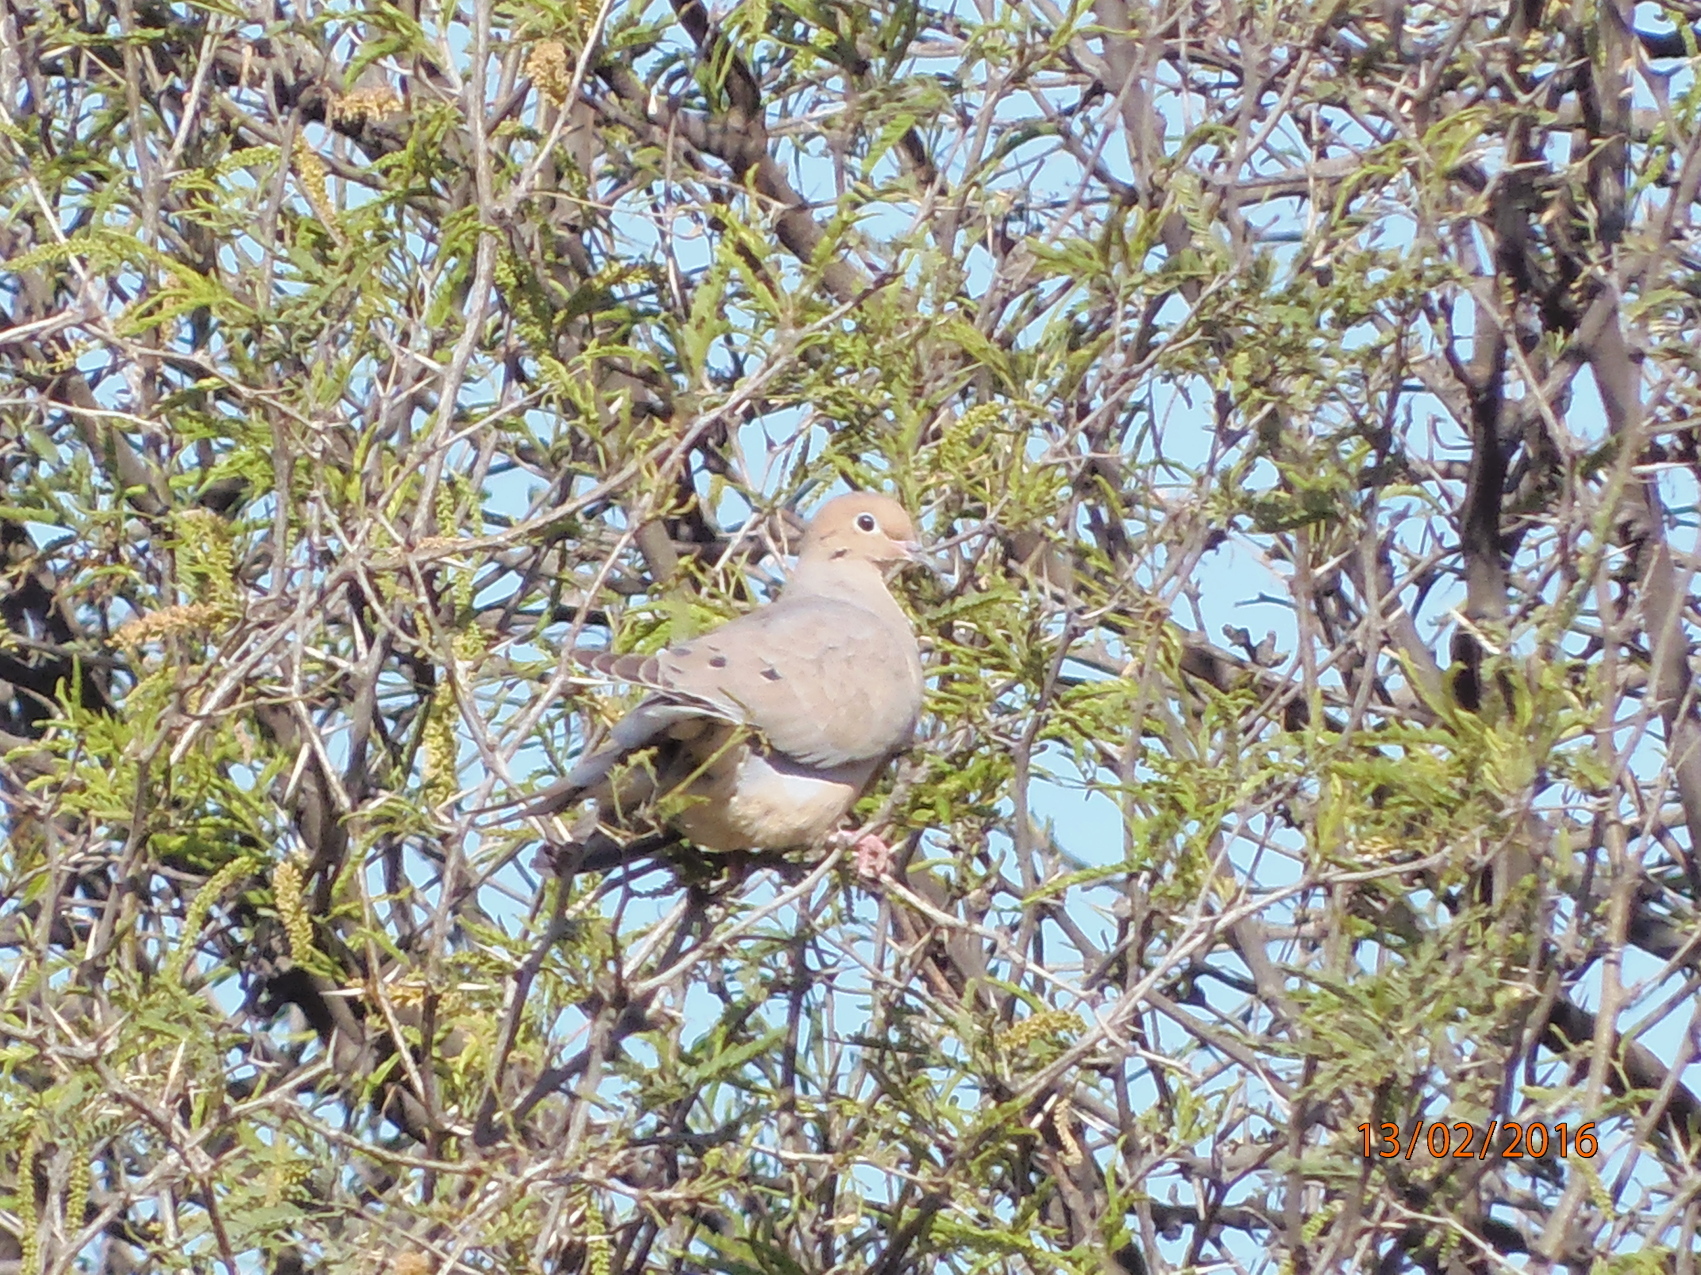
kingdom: Animalia
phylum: Chordata
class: Aves
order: Columbiformes
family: Columbidae
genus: Zenaida
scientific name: Zenaida macroura
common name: Mourning dove
